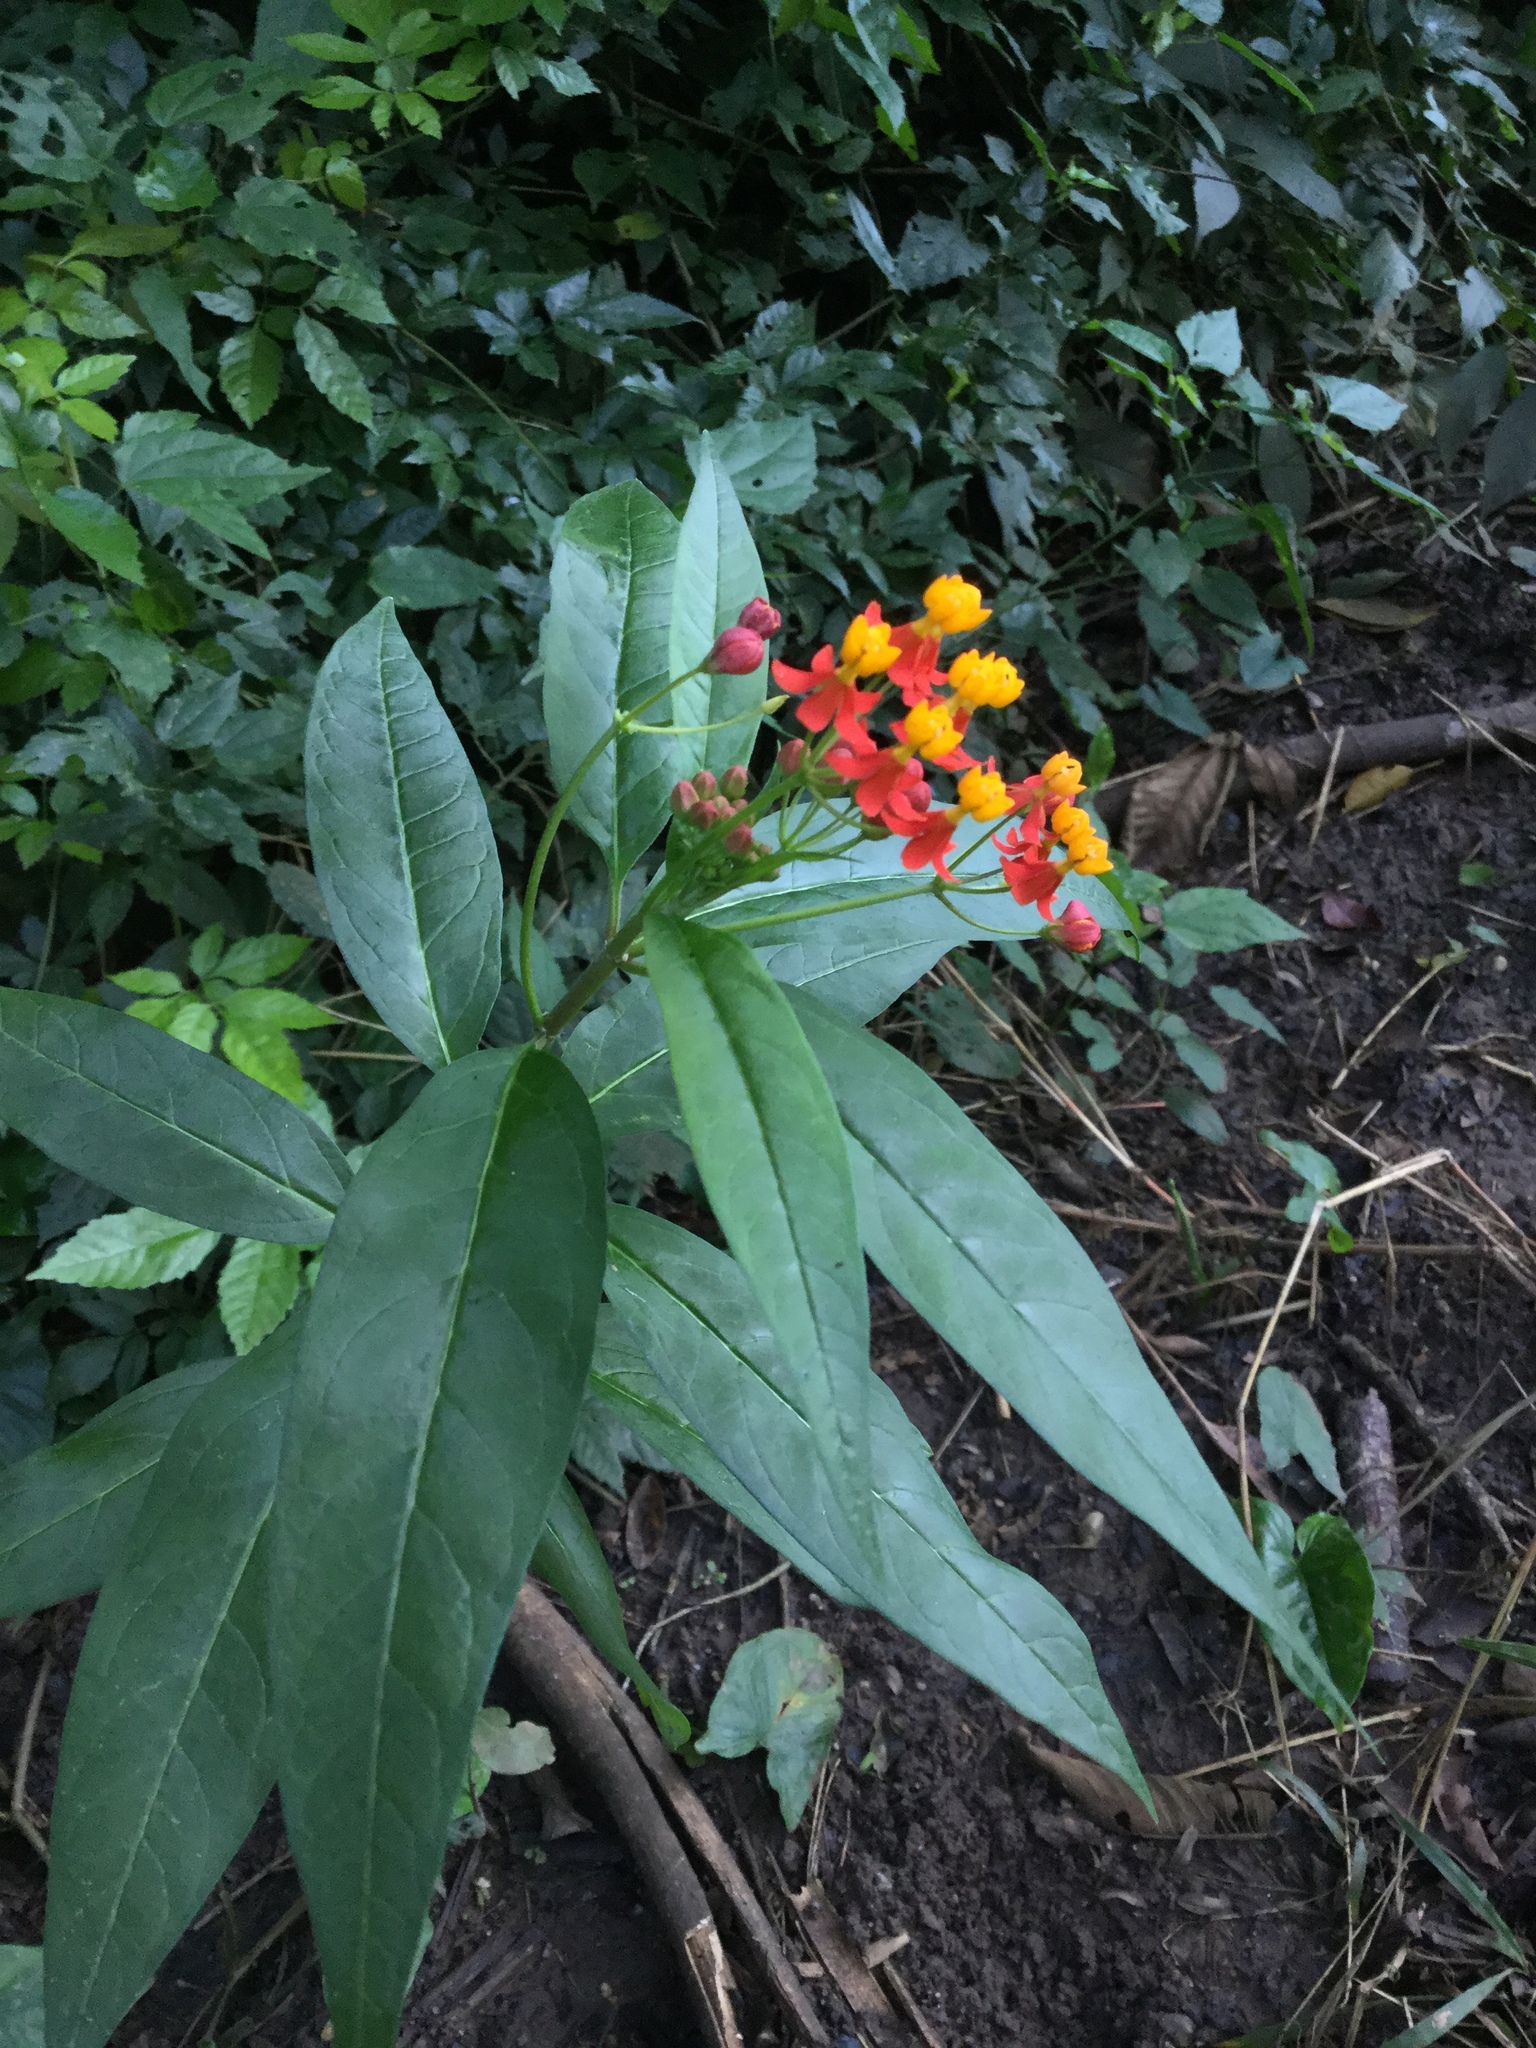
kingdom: Plantae
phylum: Tracheophyta
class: Magnoliopsida
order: Gentianales
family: Apocynaceae
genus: Asclepias
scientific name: Asclepias curassavica
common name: Bloodflower
